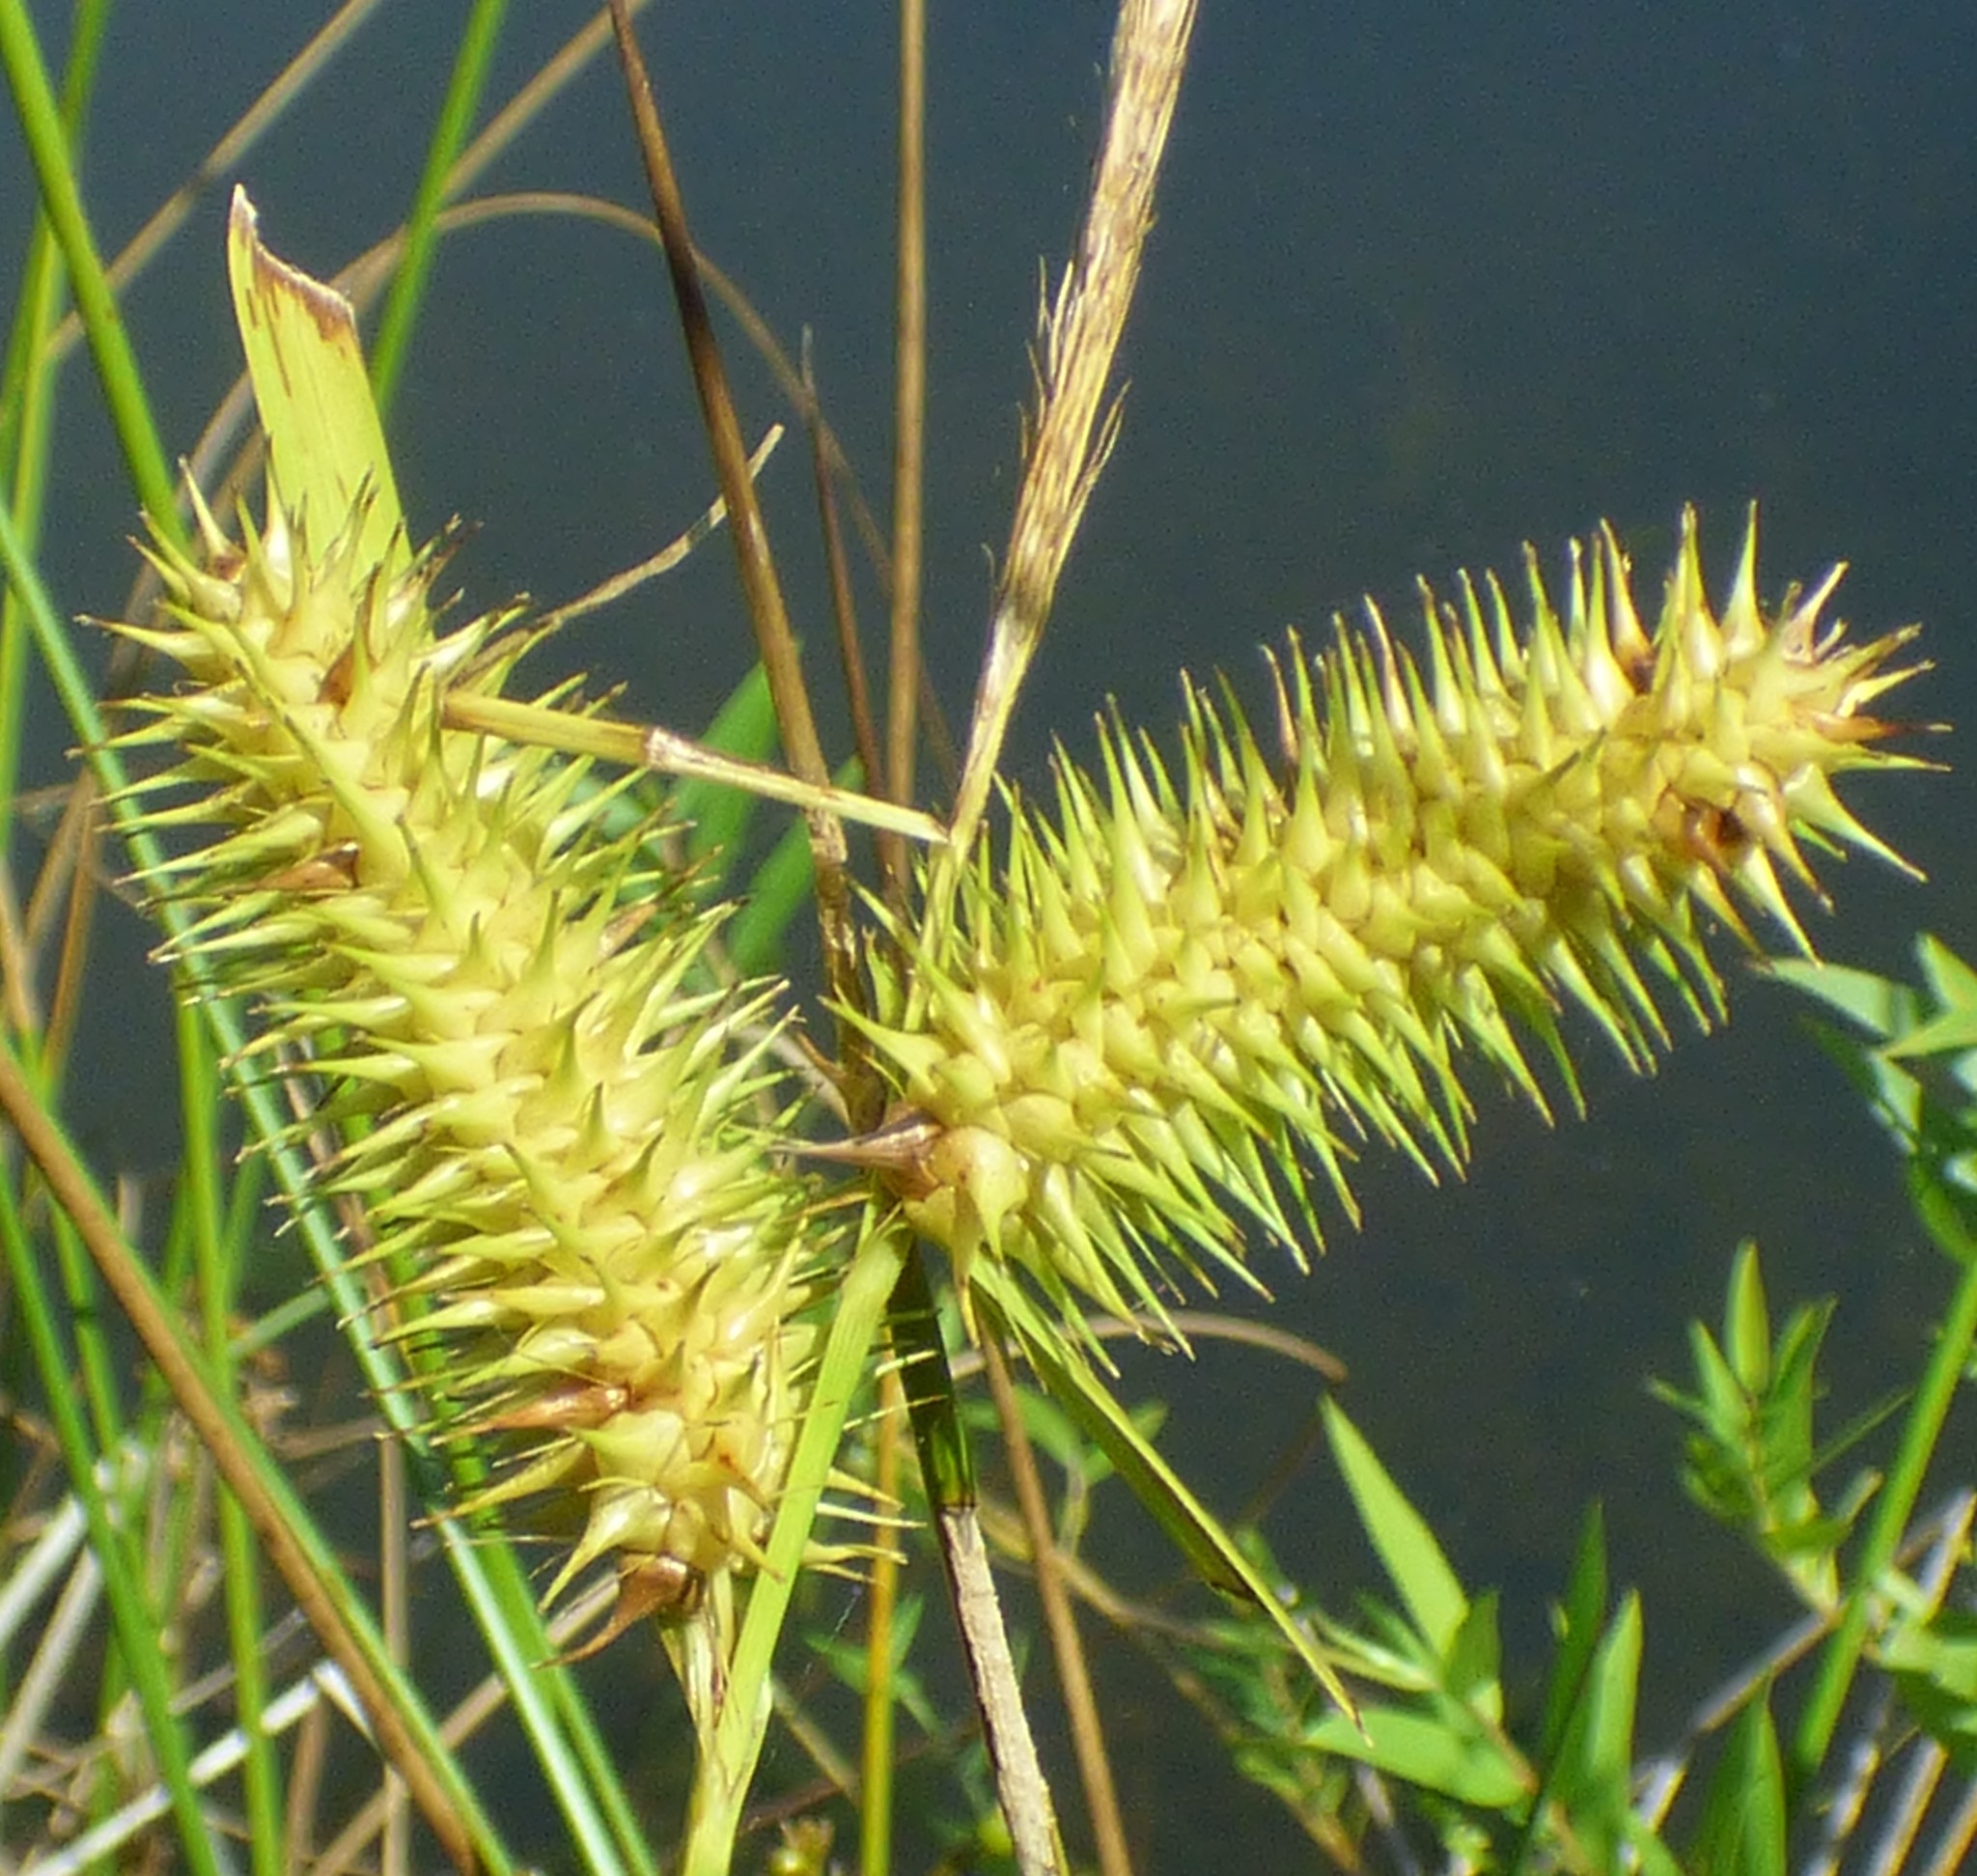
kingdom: Plantae
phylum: Tracheophyta
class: Liliopsida
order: Poales
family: Cyperaceae
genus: Carex
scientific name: Carex lurida
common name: Sallow sedge
